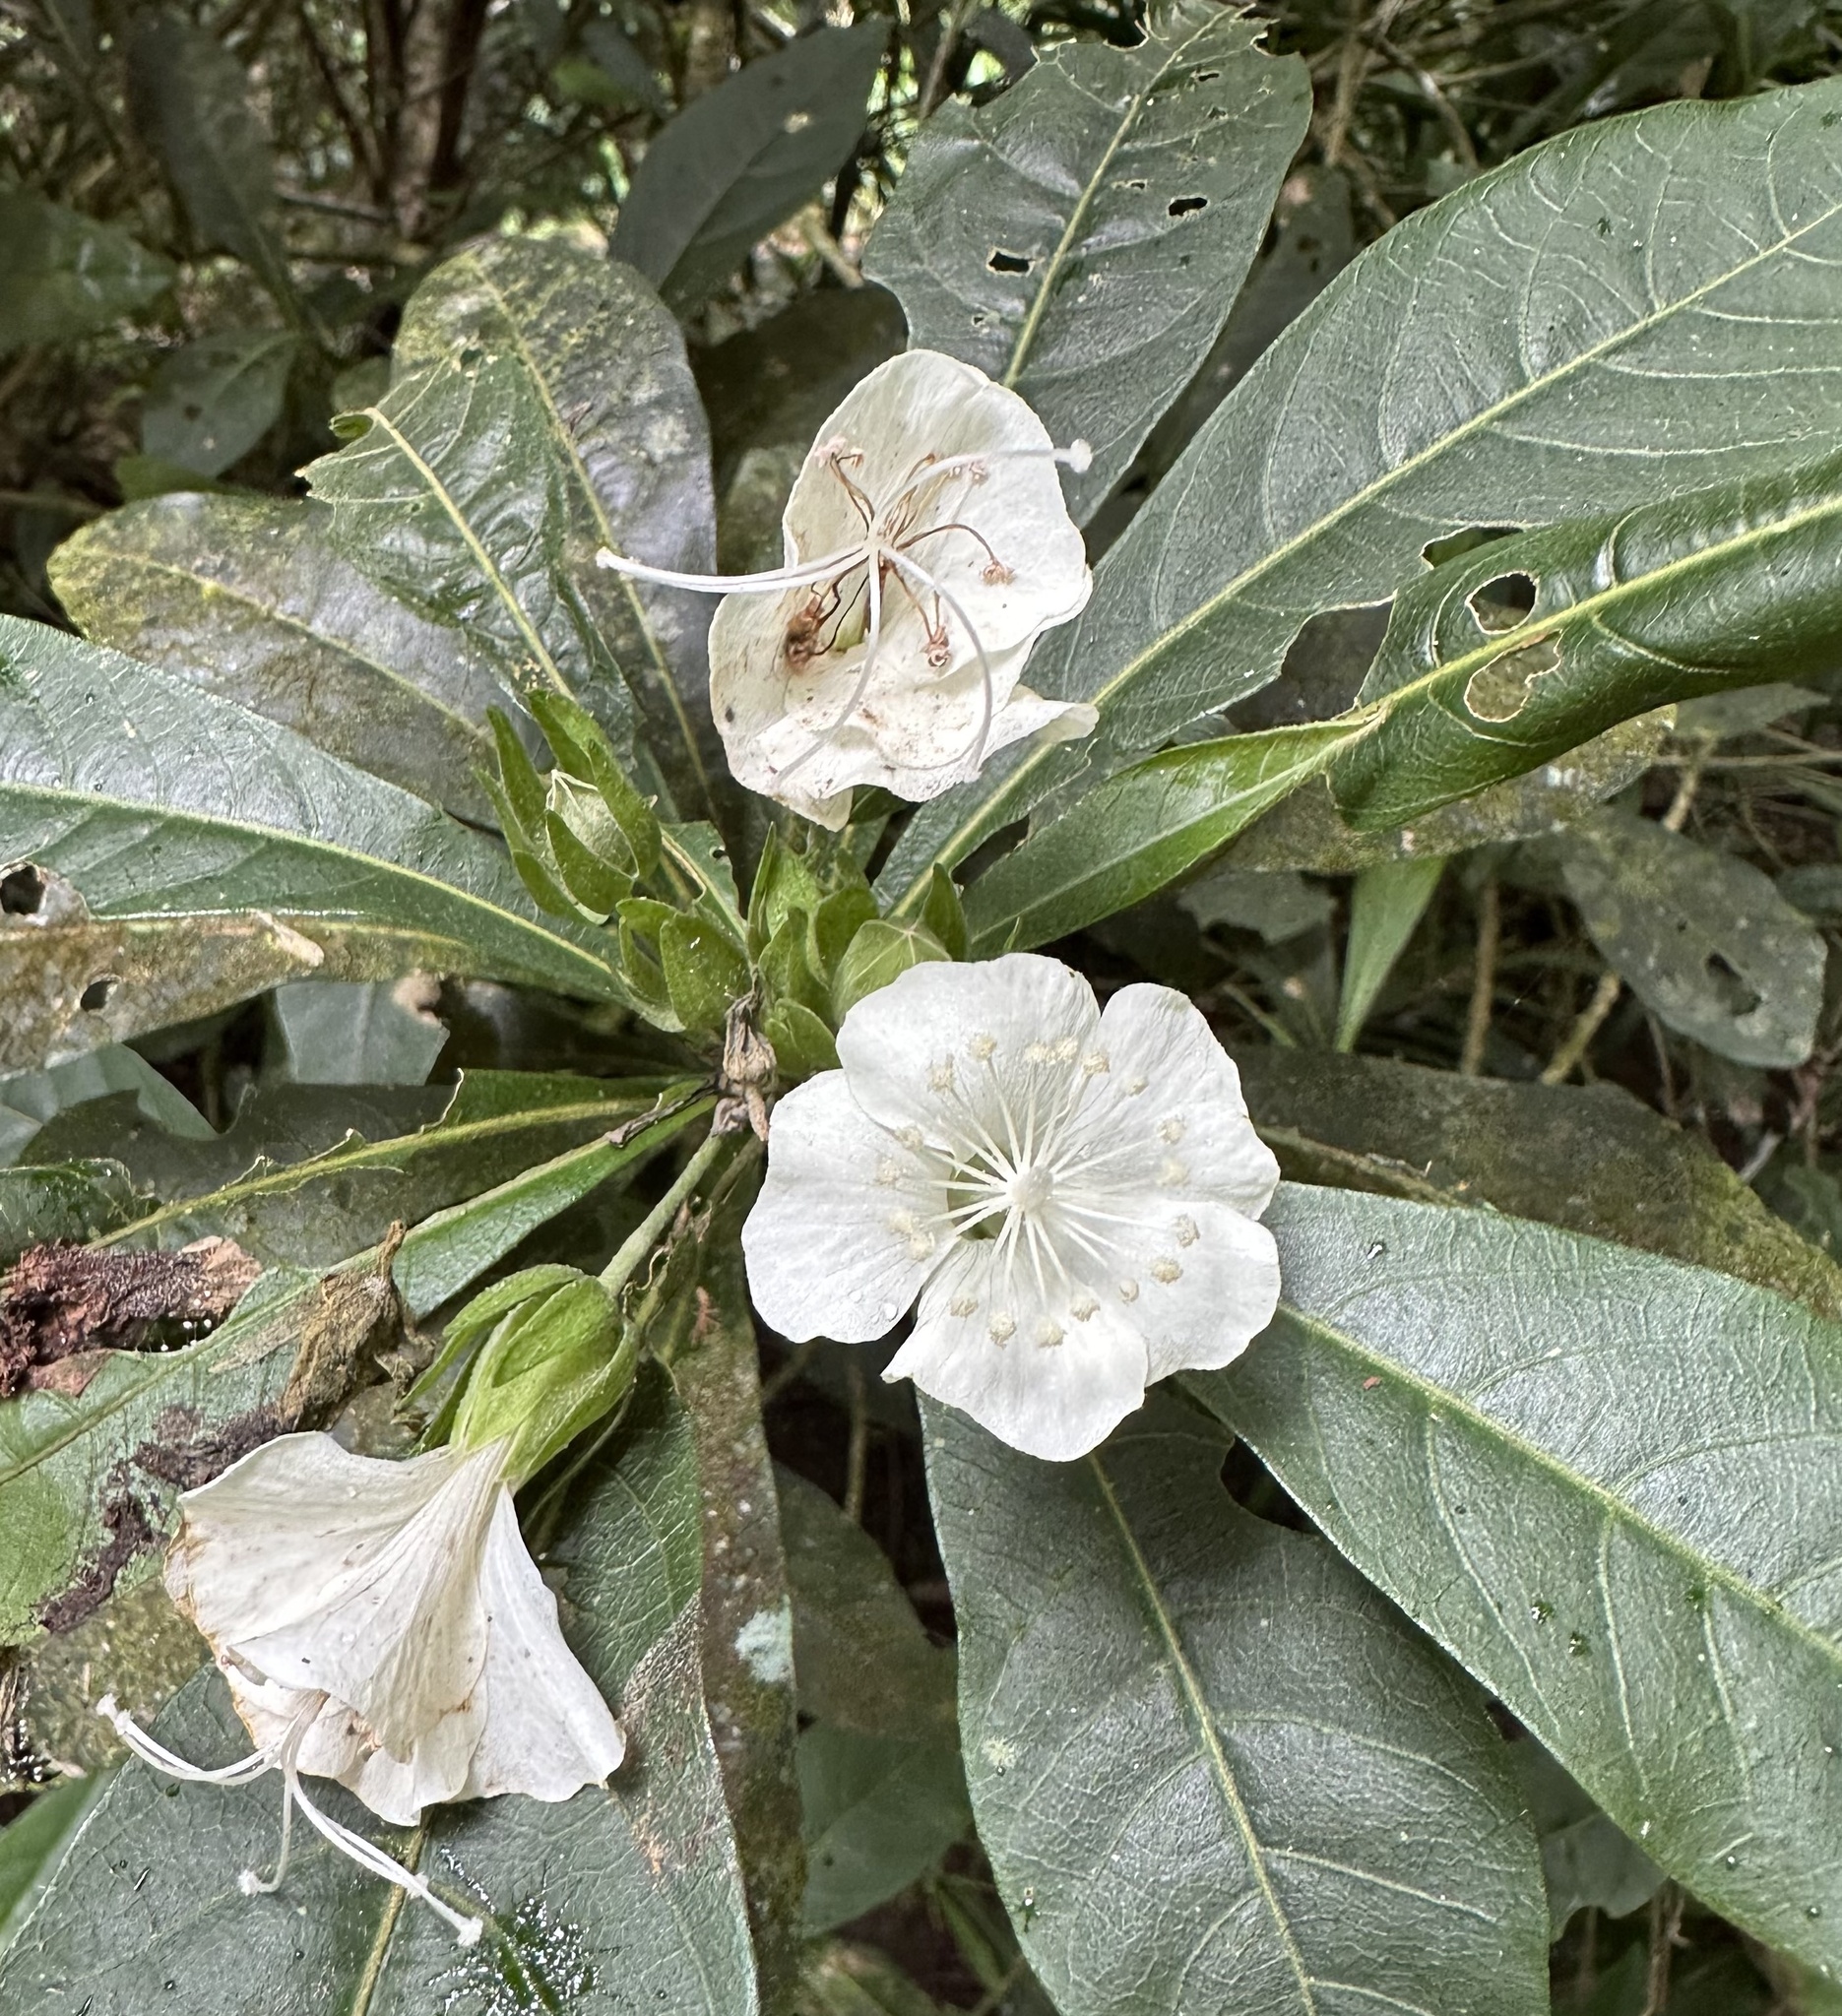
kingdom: Plantae
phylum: Tracheophyta
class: Magnoliopsida
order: Malvales
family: Malvaceae
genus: Hibiscus
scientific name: Hibiscus macilwraithensis
